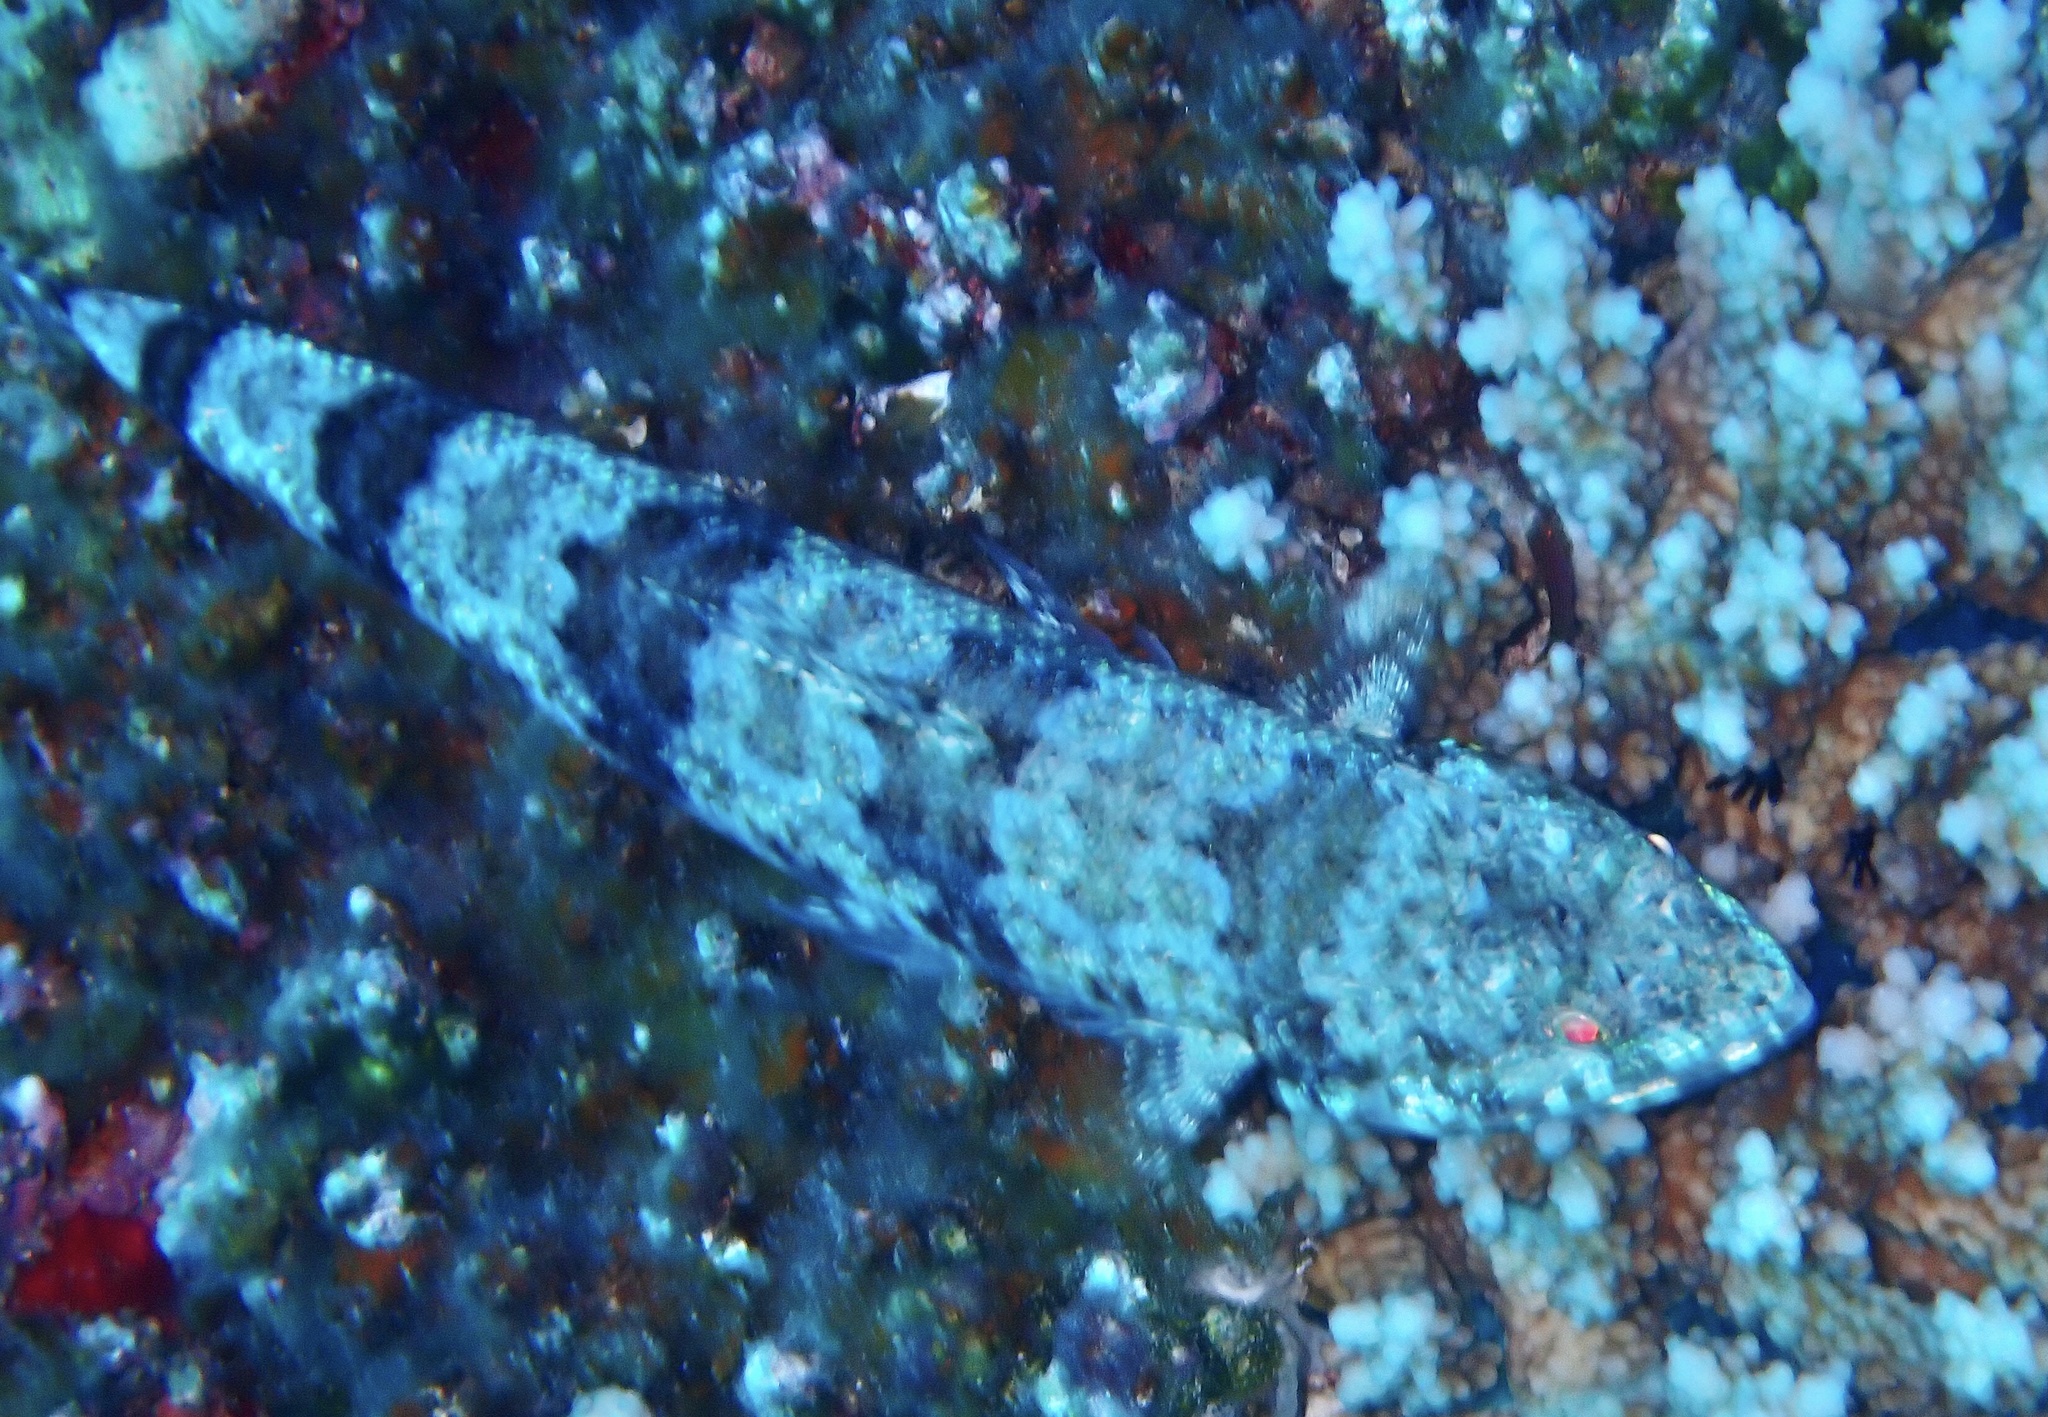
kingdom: Animalia
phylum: Chordata
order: Aulopiformes
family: Synodontidae
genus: Synodus
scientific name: Synodus variegatus
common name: Variegated lizardfish
